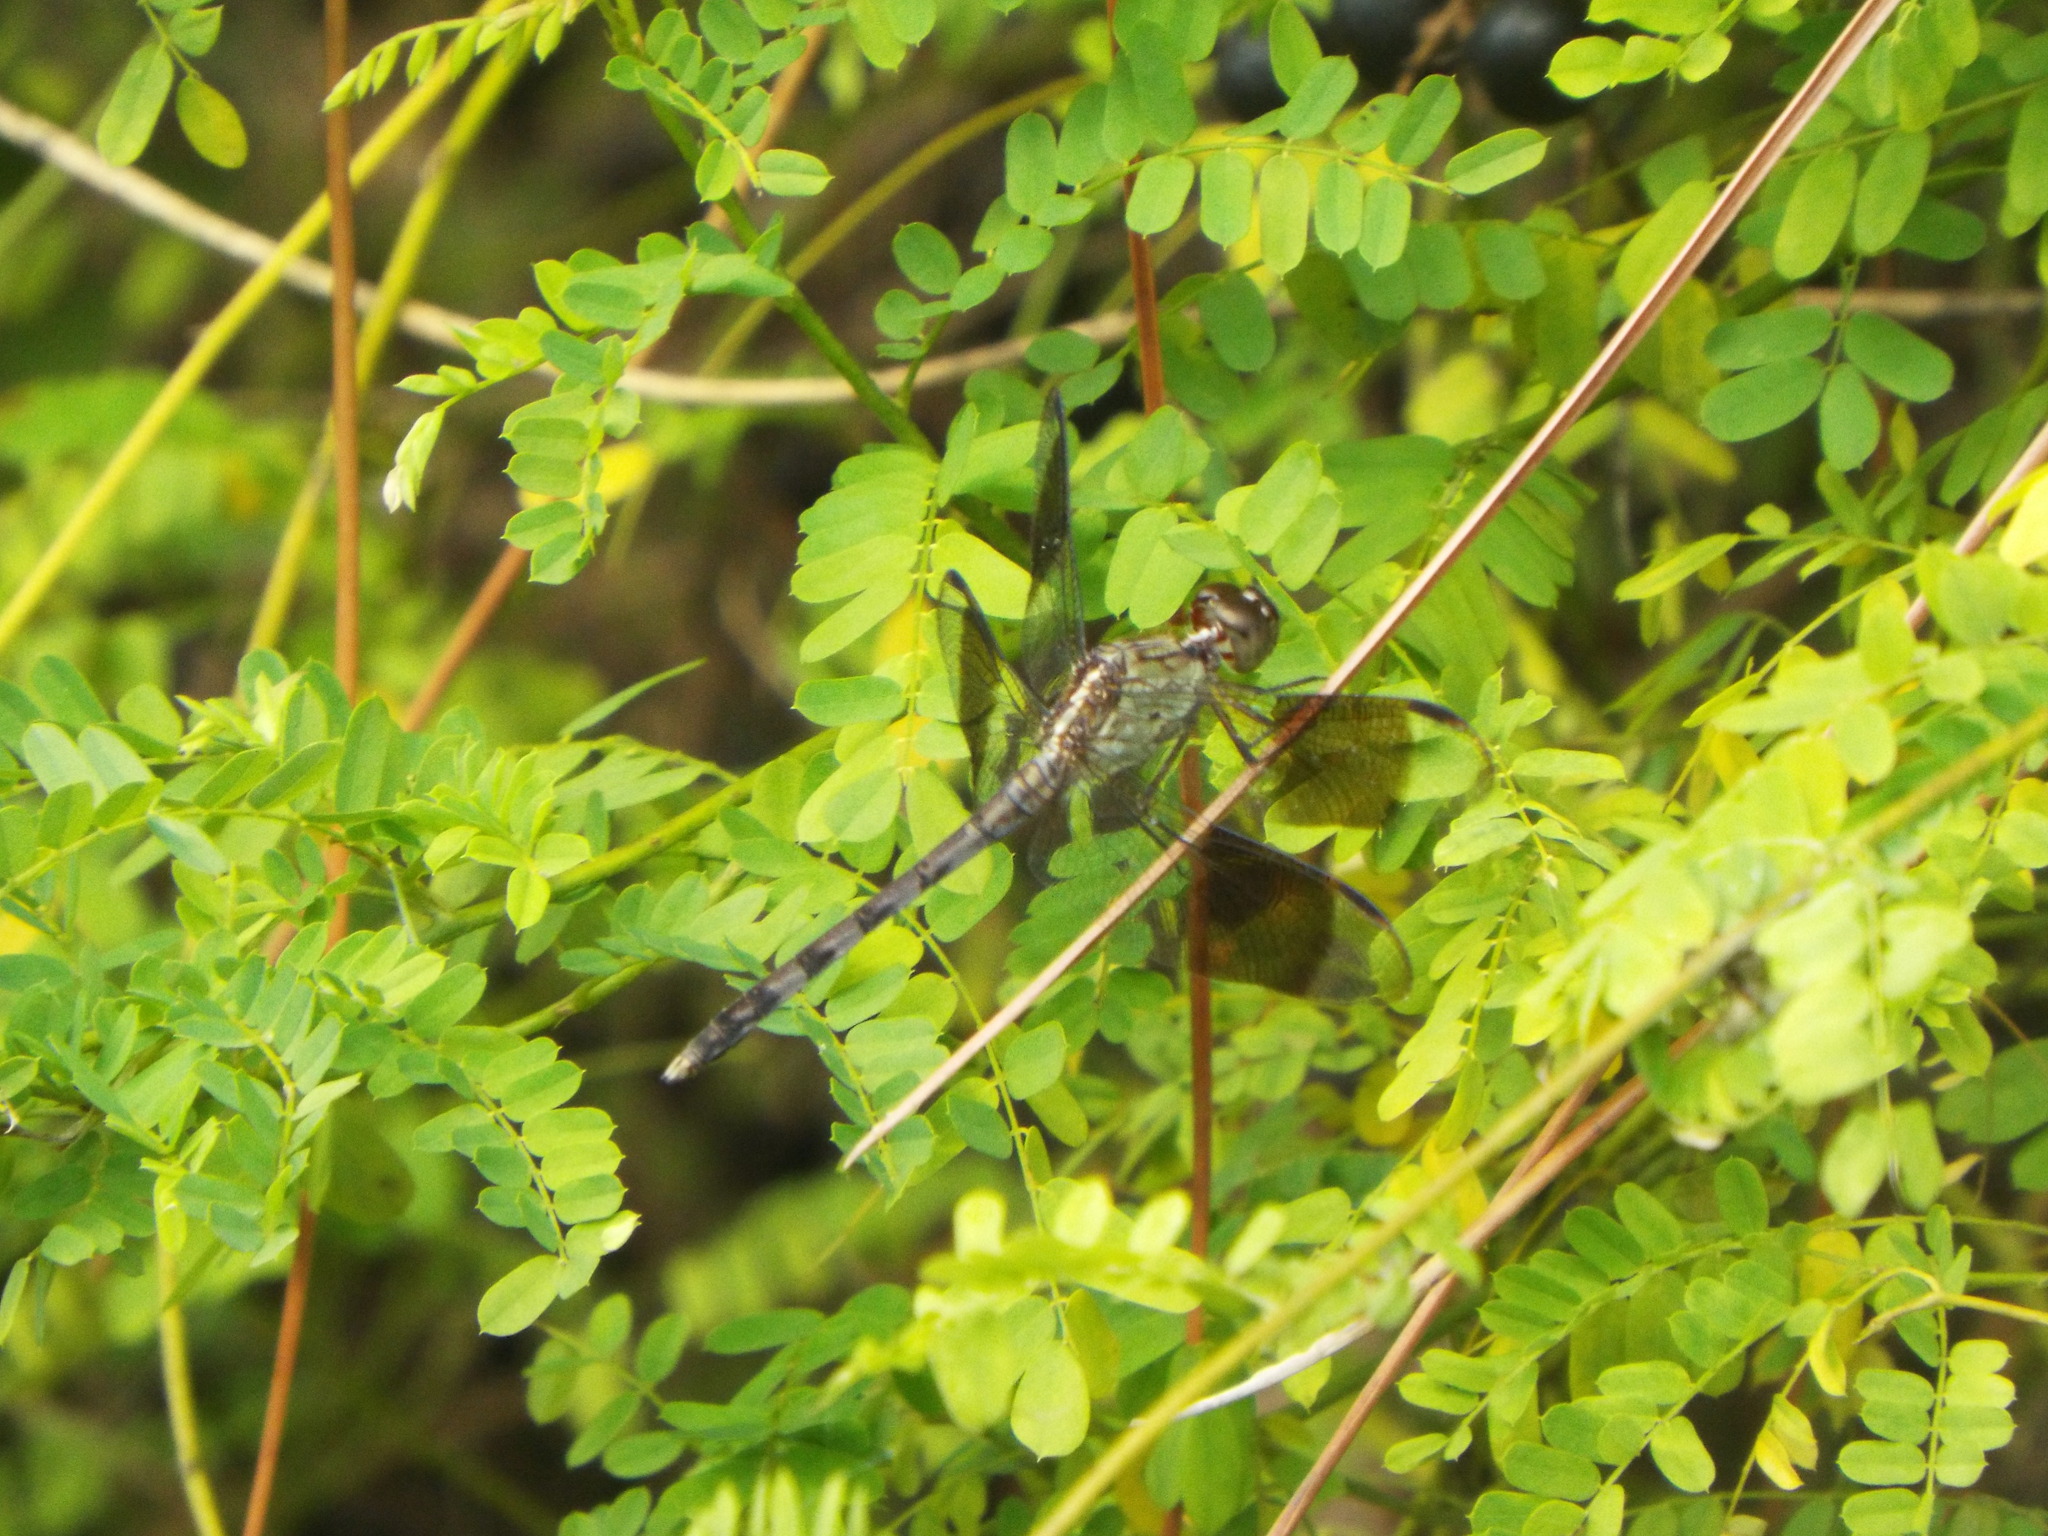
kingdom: Animalia
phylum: Arthropoda
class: Insecta
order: Odonata
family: Libellulidae
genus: Erythrodiplax
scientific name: Erythrodiplax umbrata
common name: Band-winged dragonlet
